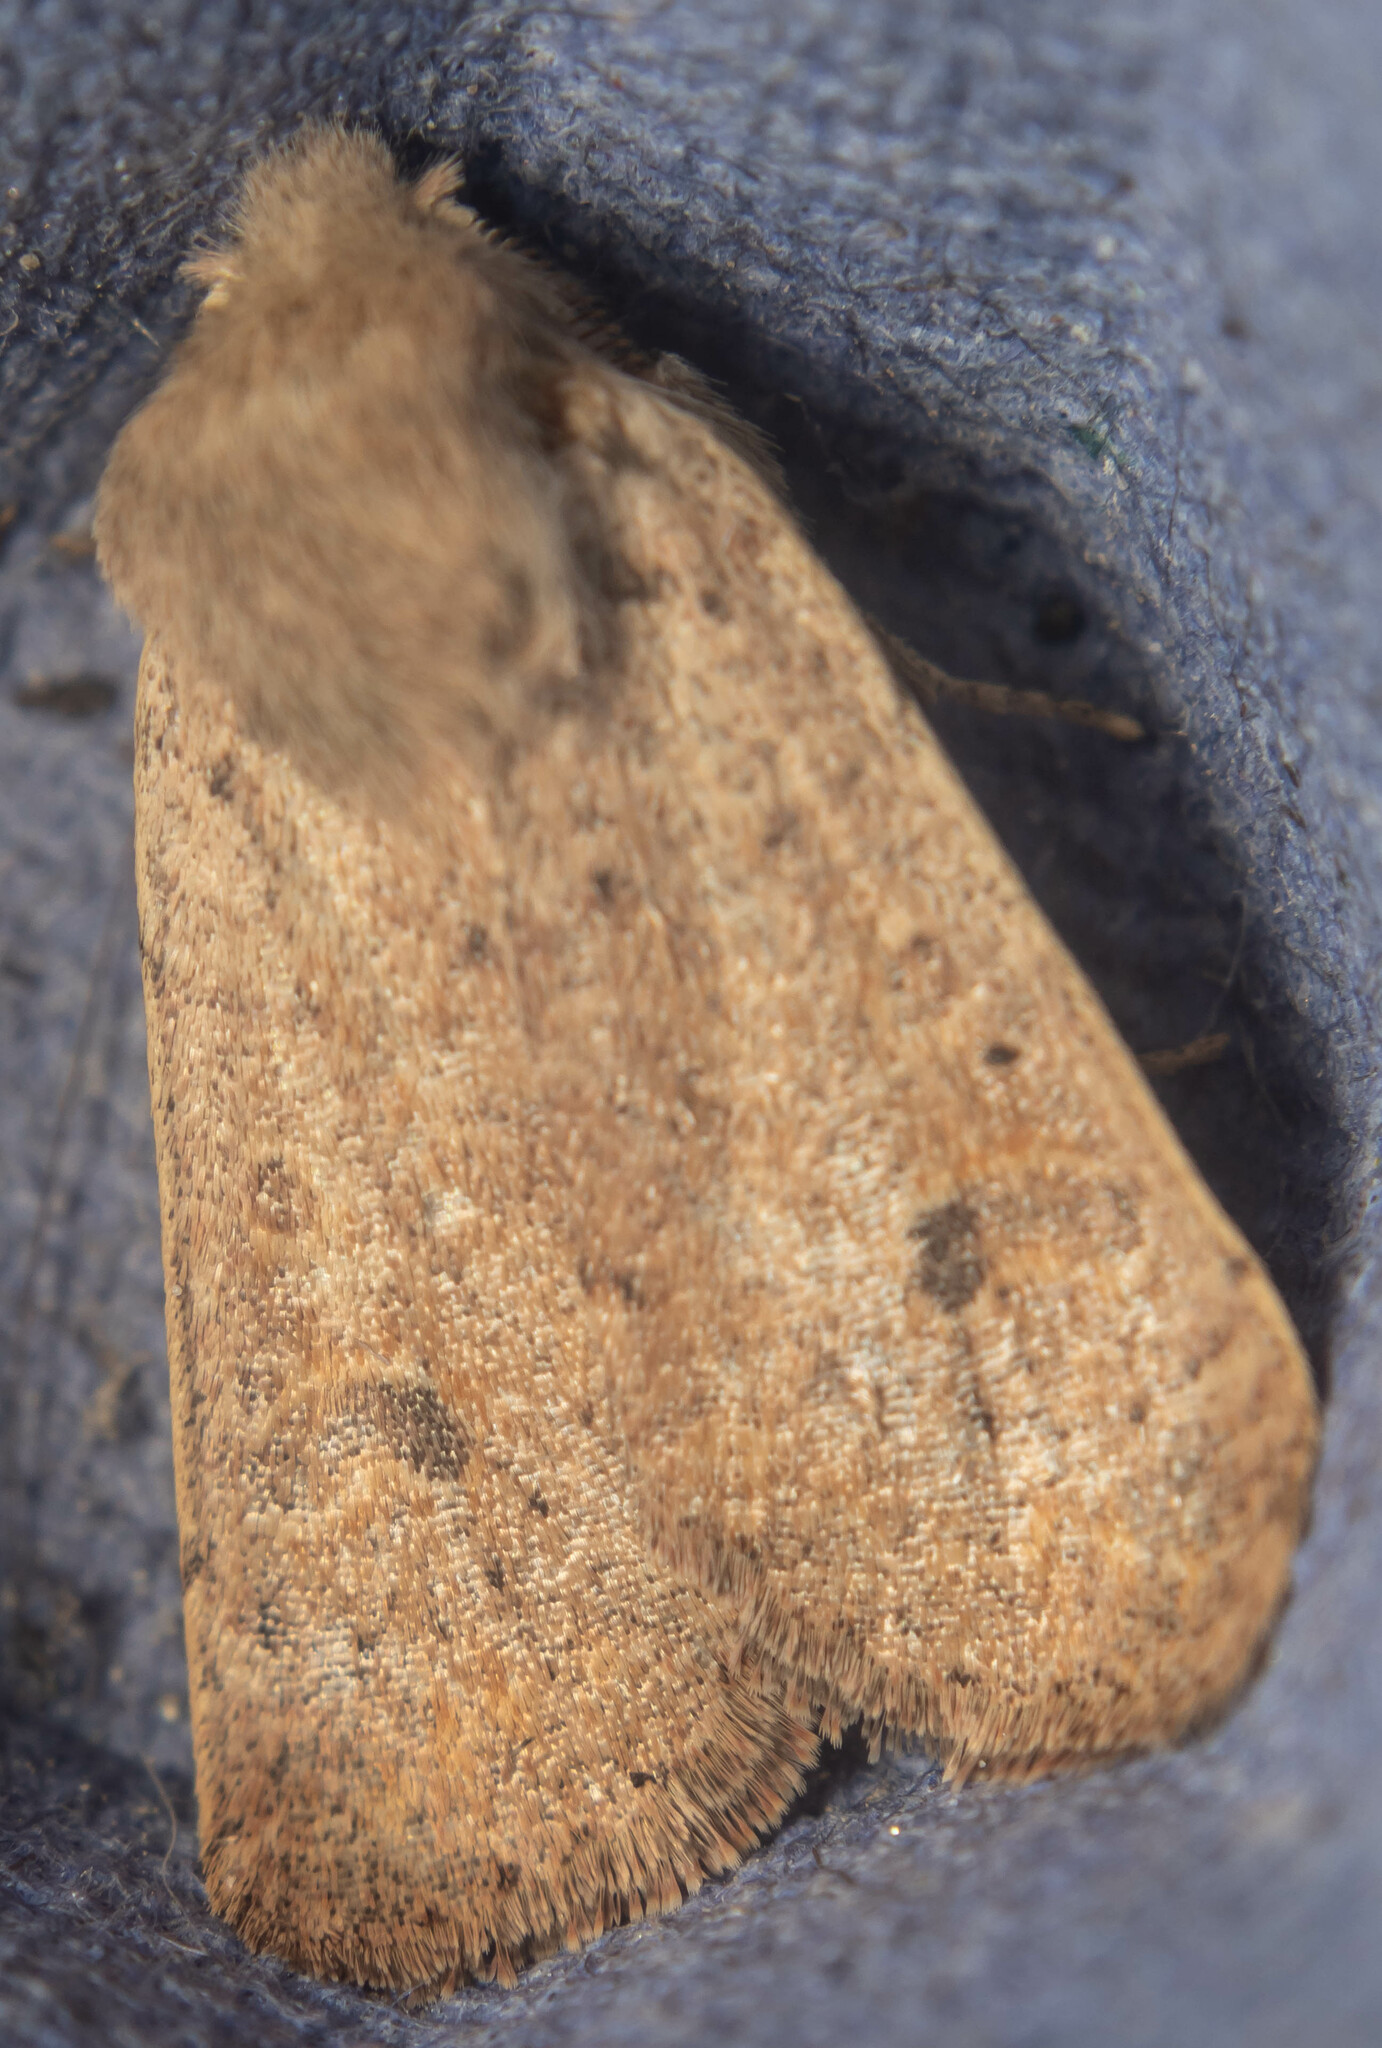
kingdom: Animalia
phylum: Arthropoda
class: Insecta
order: Lepidoptera
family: Noctuidae
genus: Orthosia
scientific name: Orthosia cruda
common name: Small quaker
